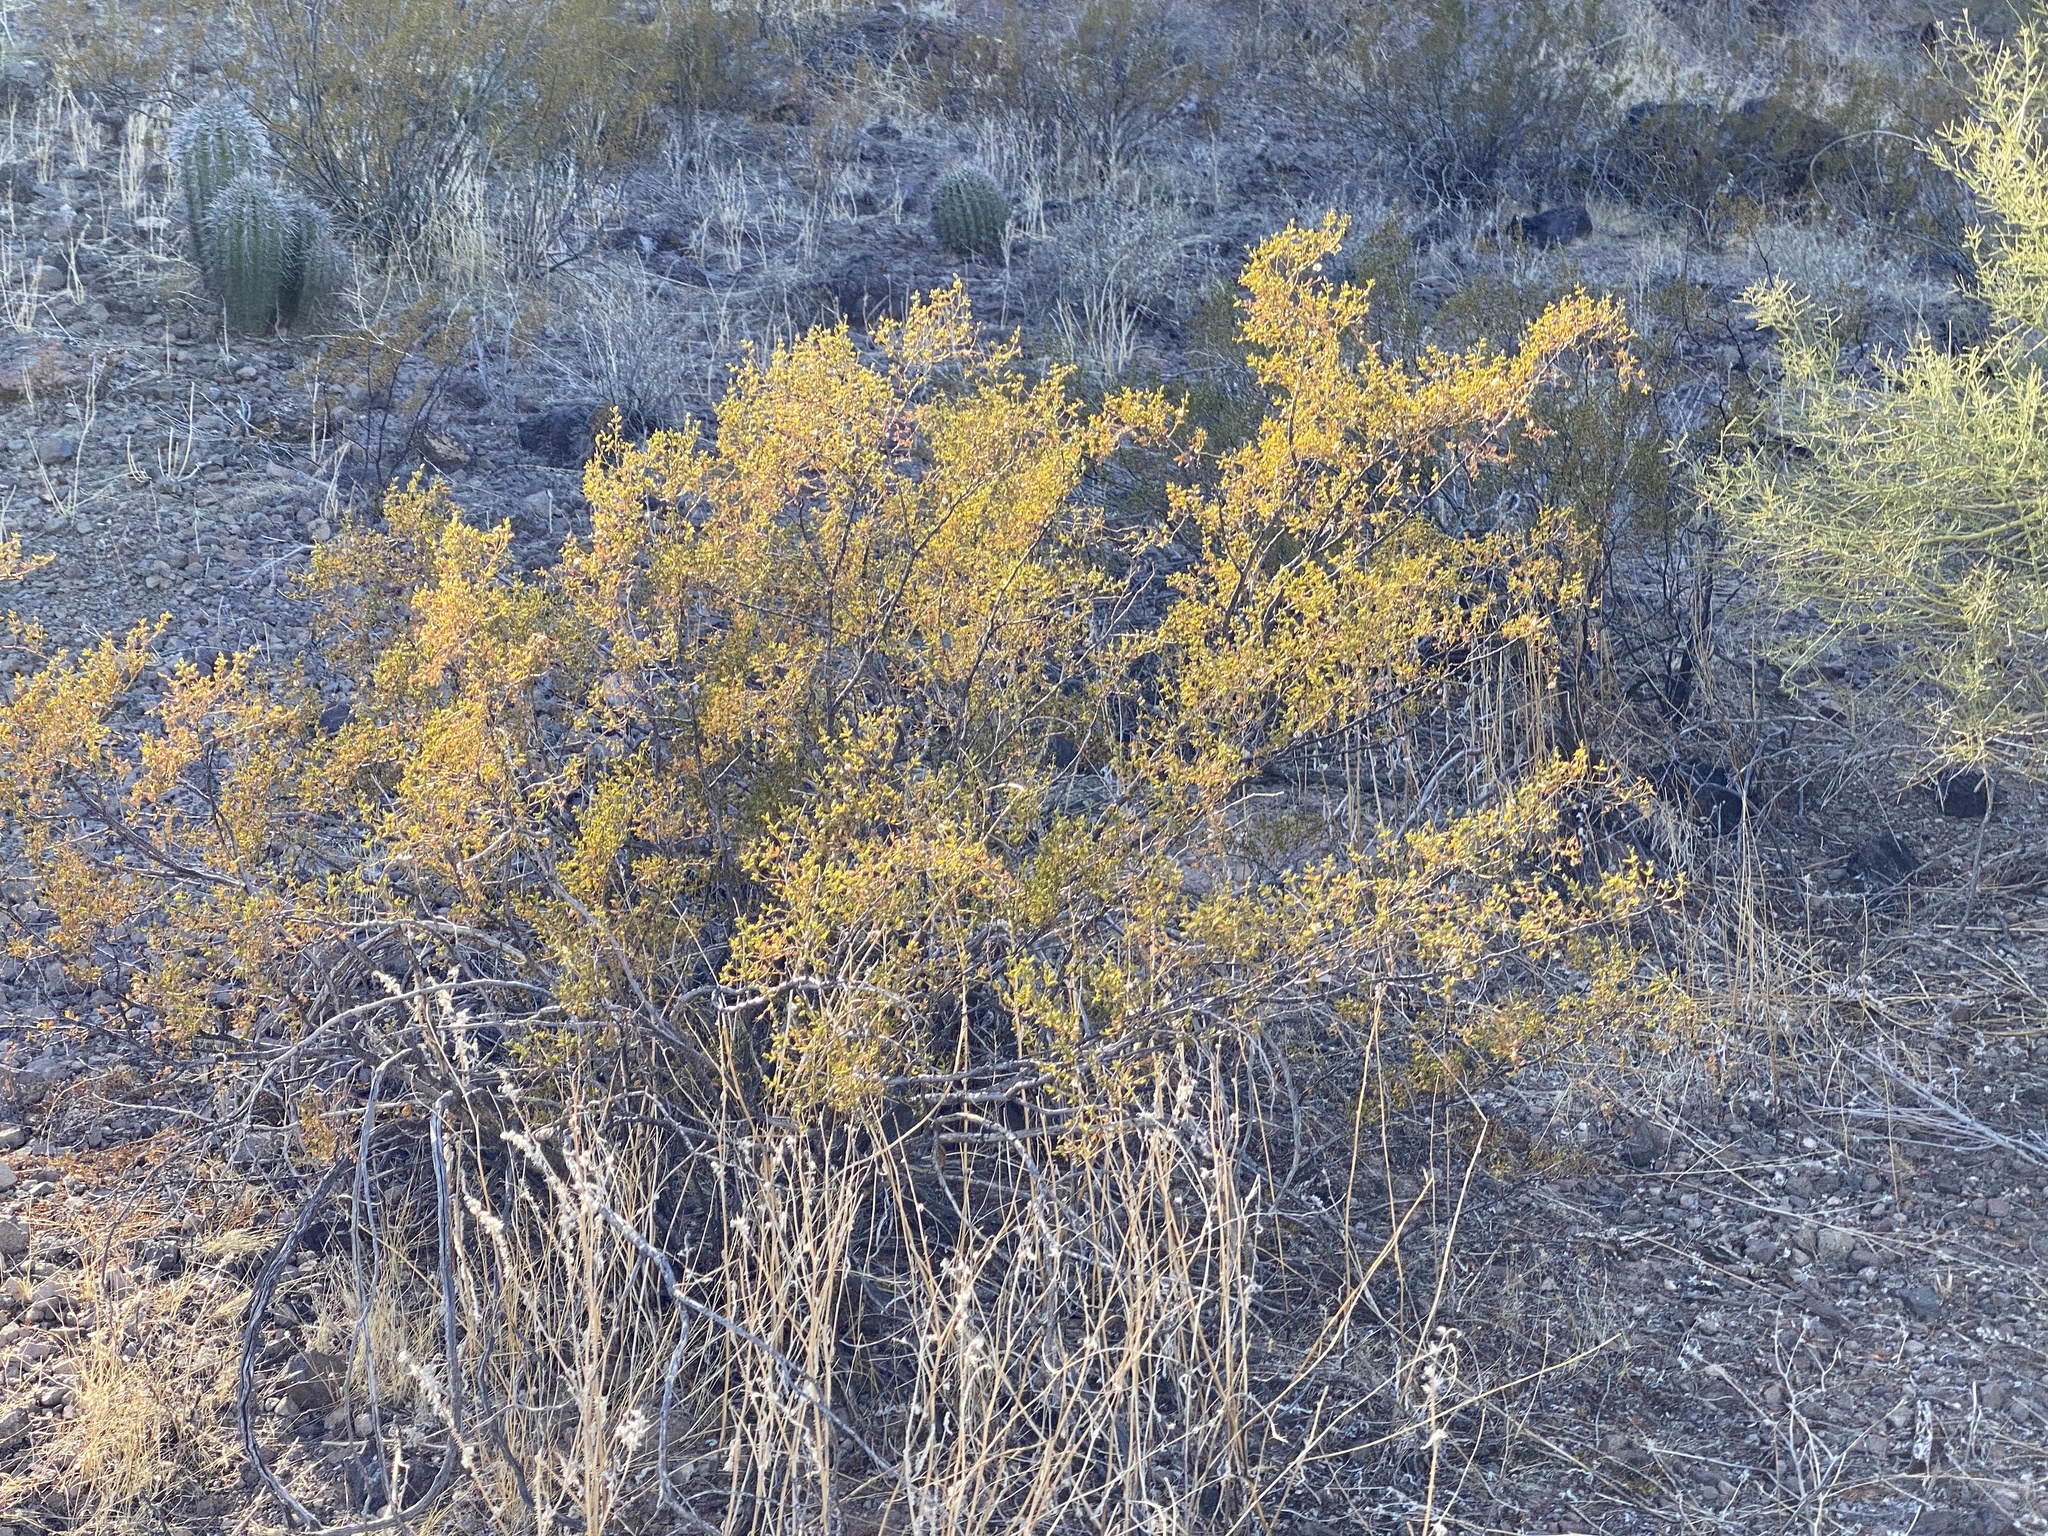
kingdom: Plantae
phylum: Tracheophyta
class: Magnoliopsida
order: Zygophyllales
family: Zygophyllaceae
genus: Larrea
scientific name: Larrea tridentata
